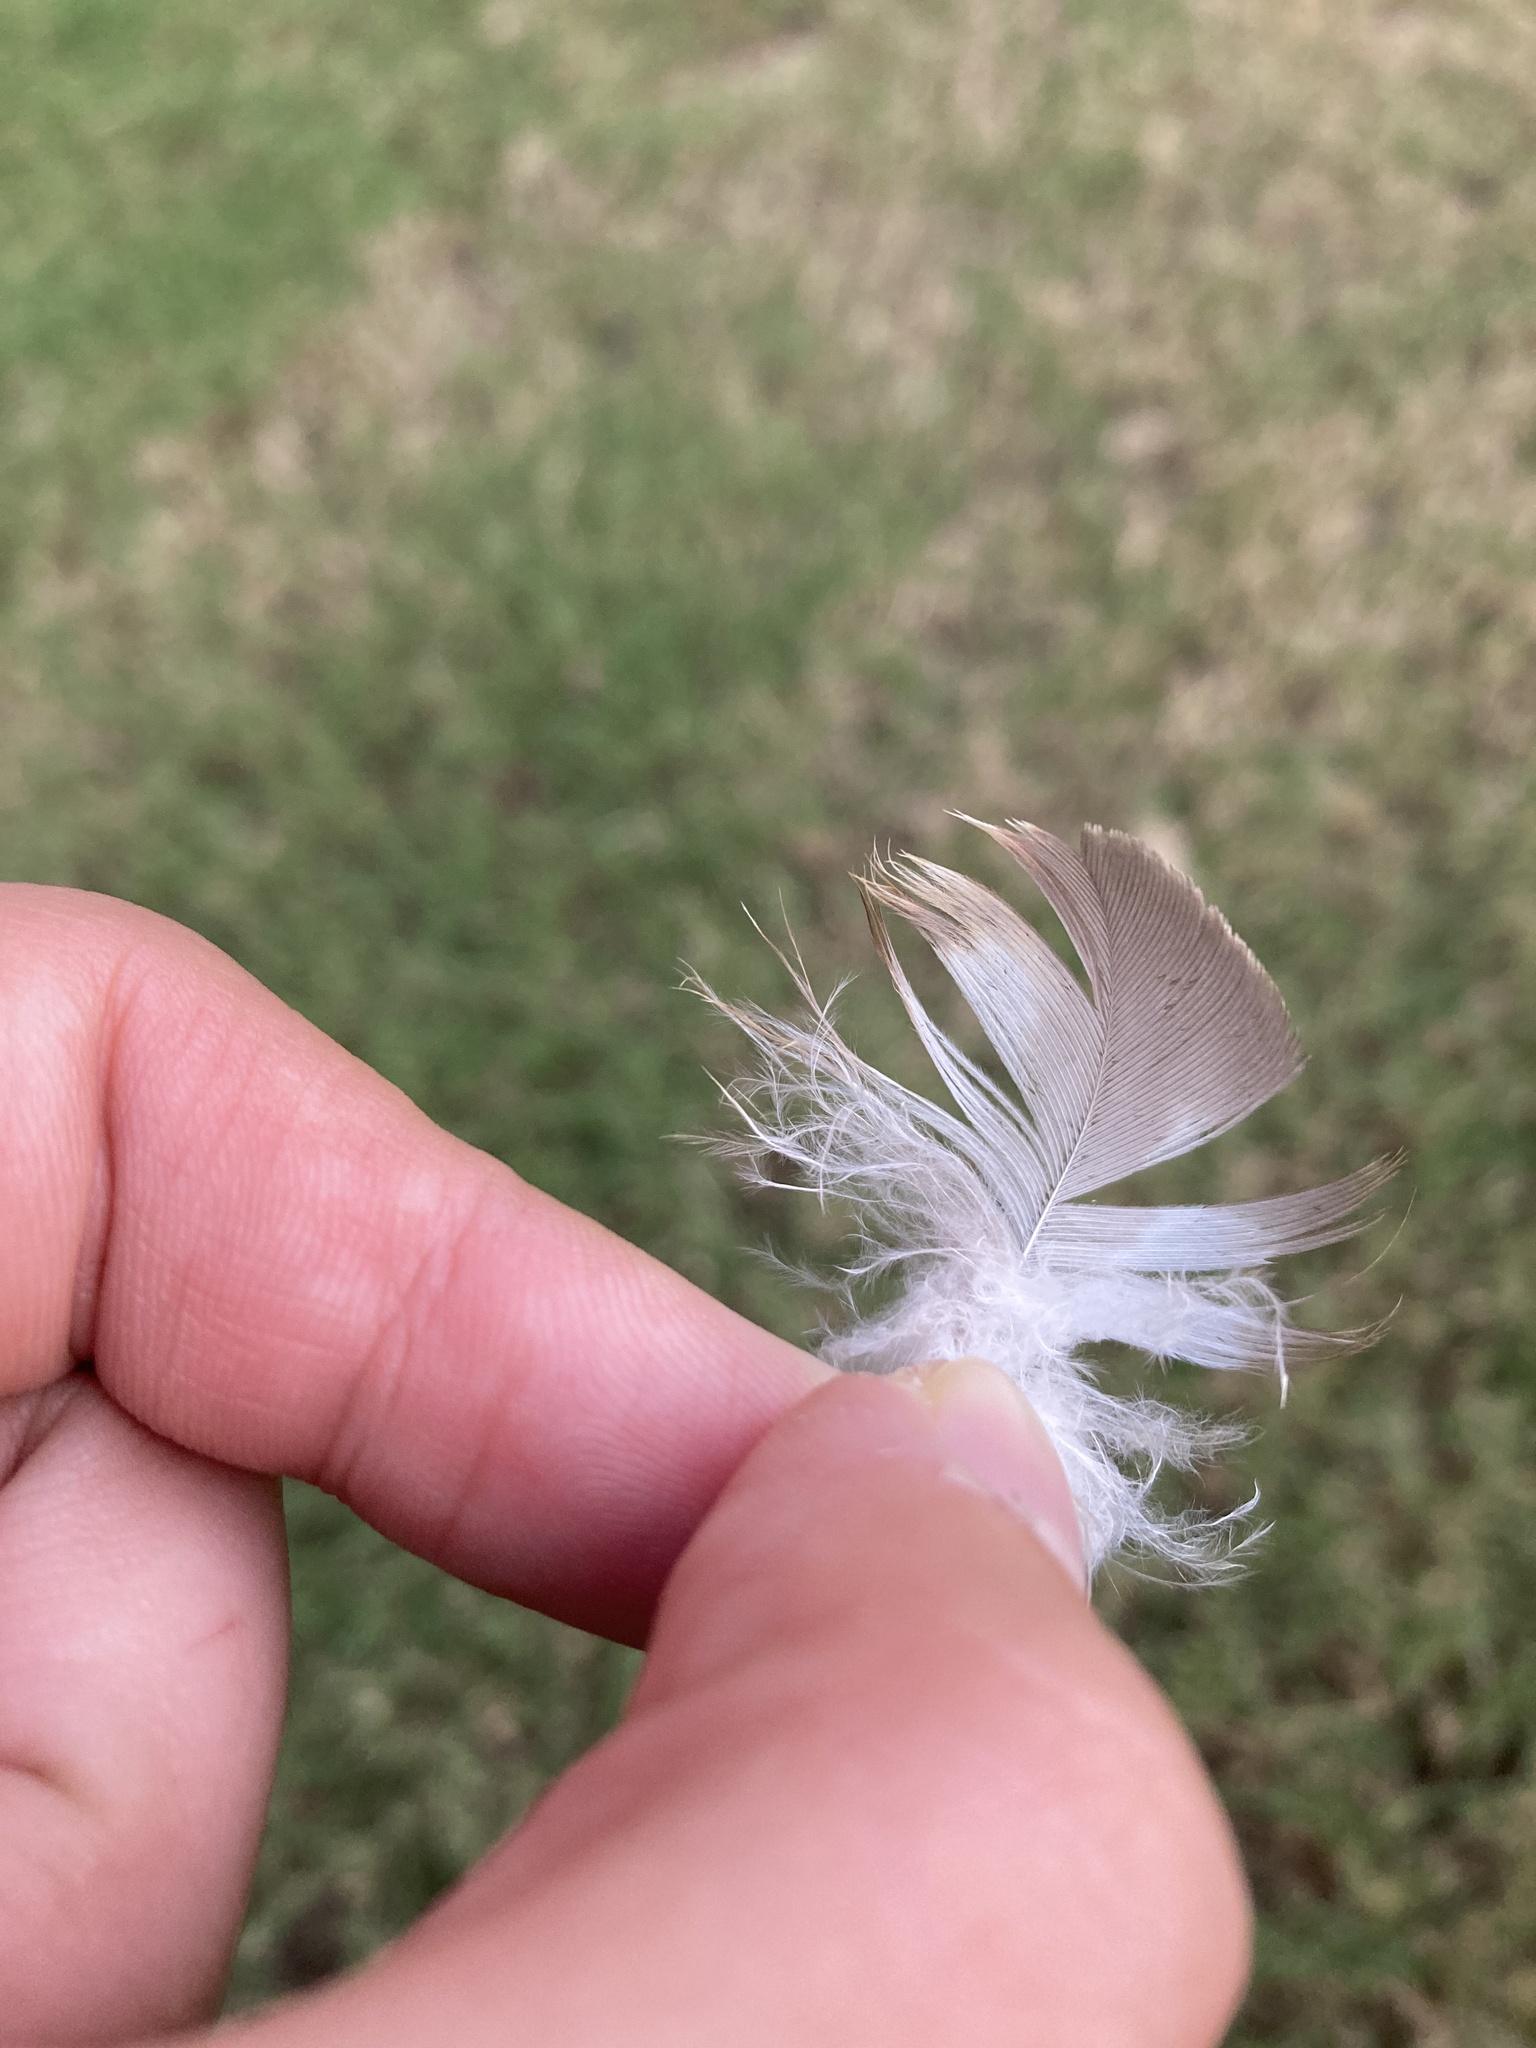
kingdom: Animalia
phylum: Chordata
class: Aves
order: Accipitriformes
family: Accipitridae
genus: Buteo
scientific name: Buteo jamaicensis
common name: Red-tailed hawk
